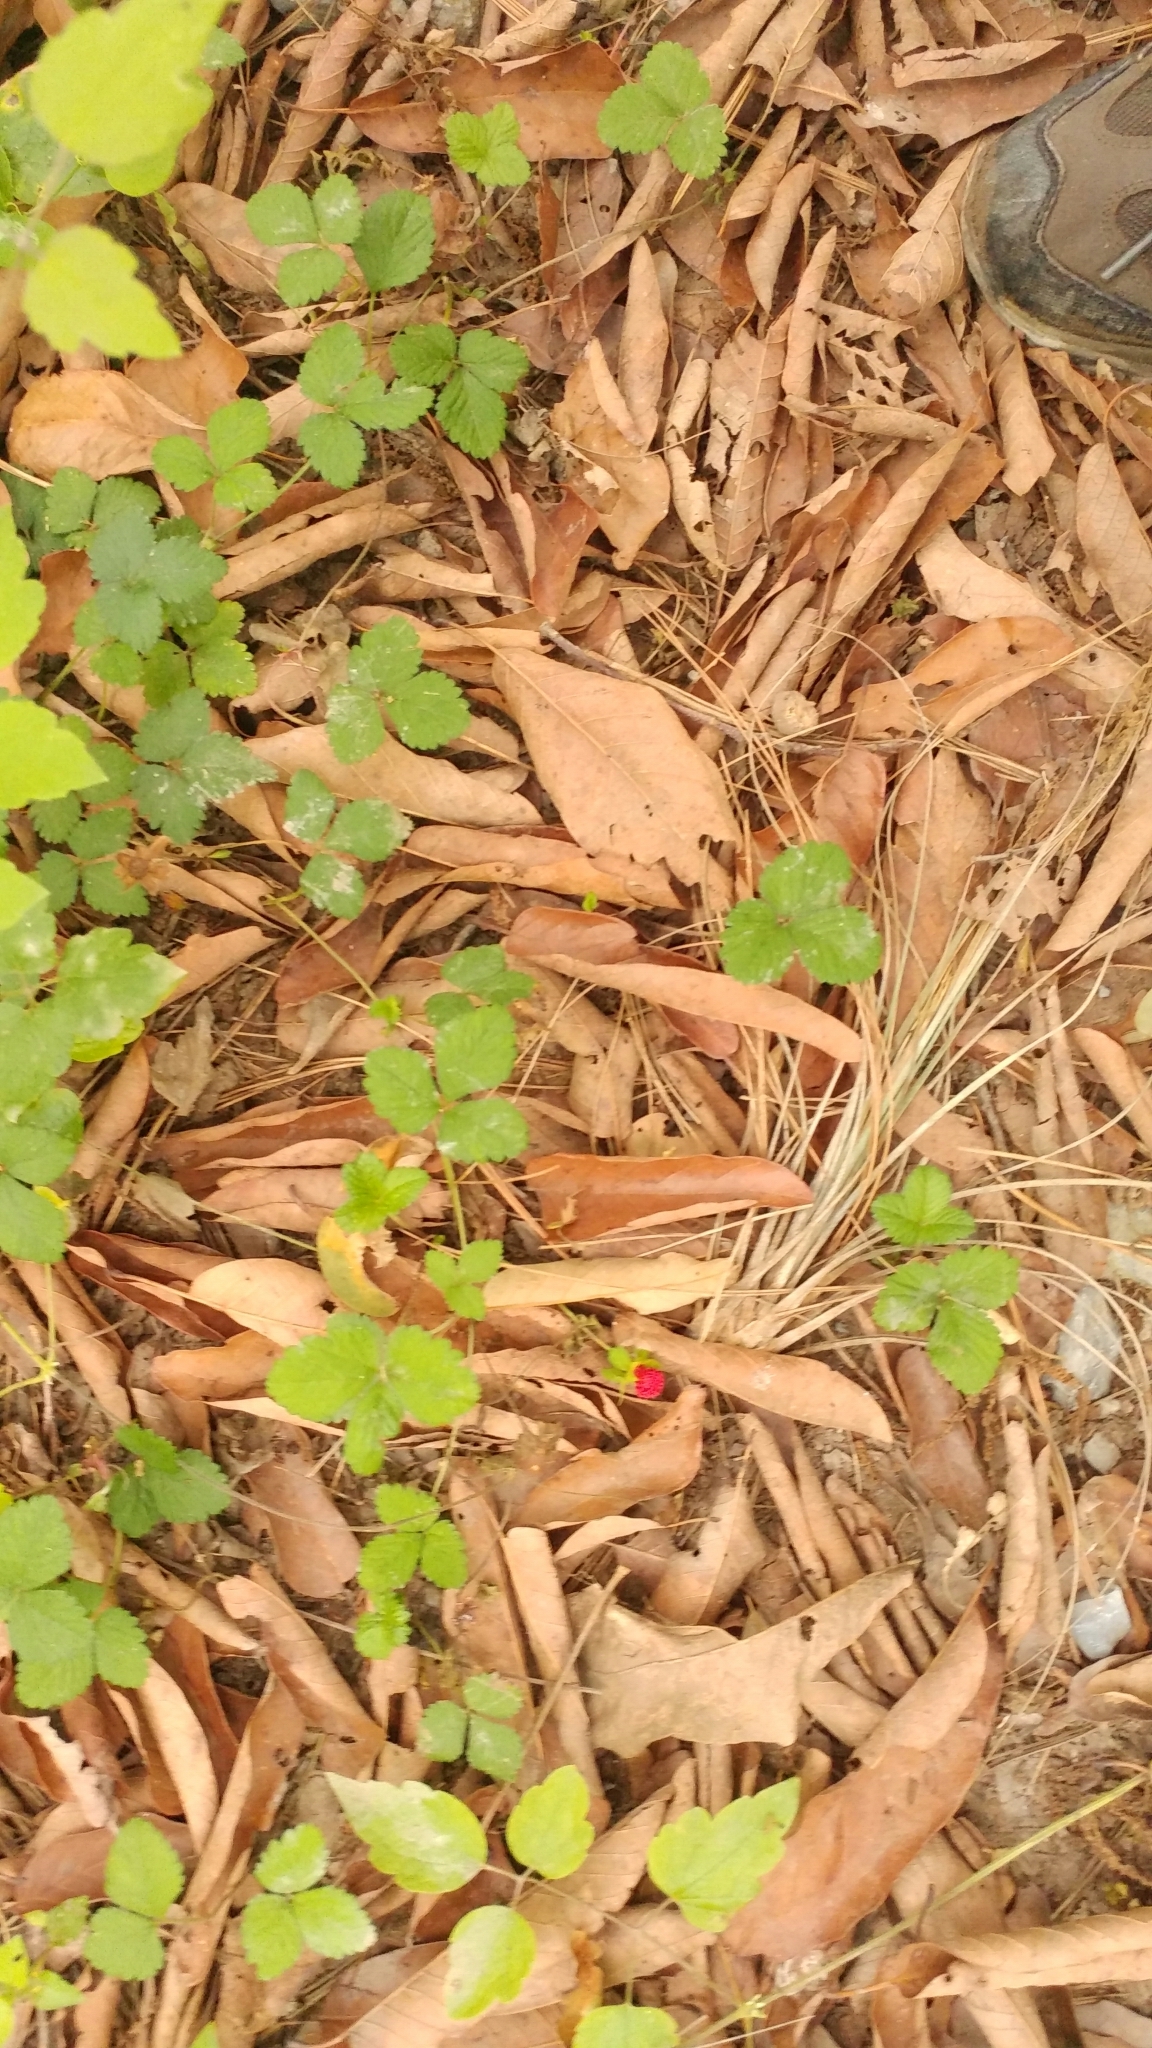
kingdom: Plantae
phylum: Tracheophyta
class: Magnoliopsida
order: Rosales
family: Rosaceae
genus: Potentilla
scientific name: Potentilla indica
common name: Yellow-flowered strawberry
